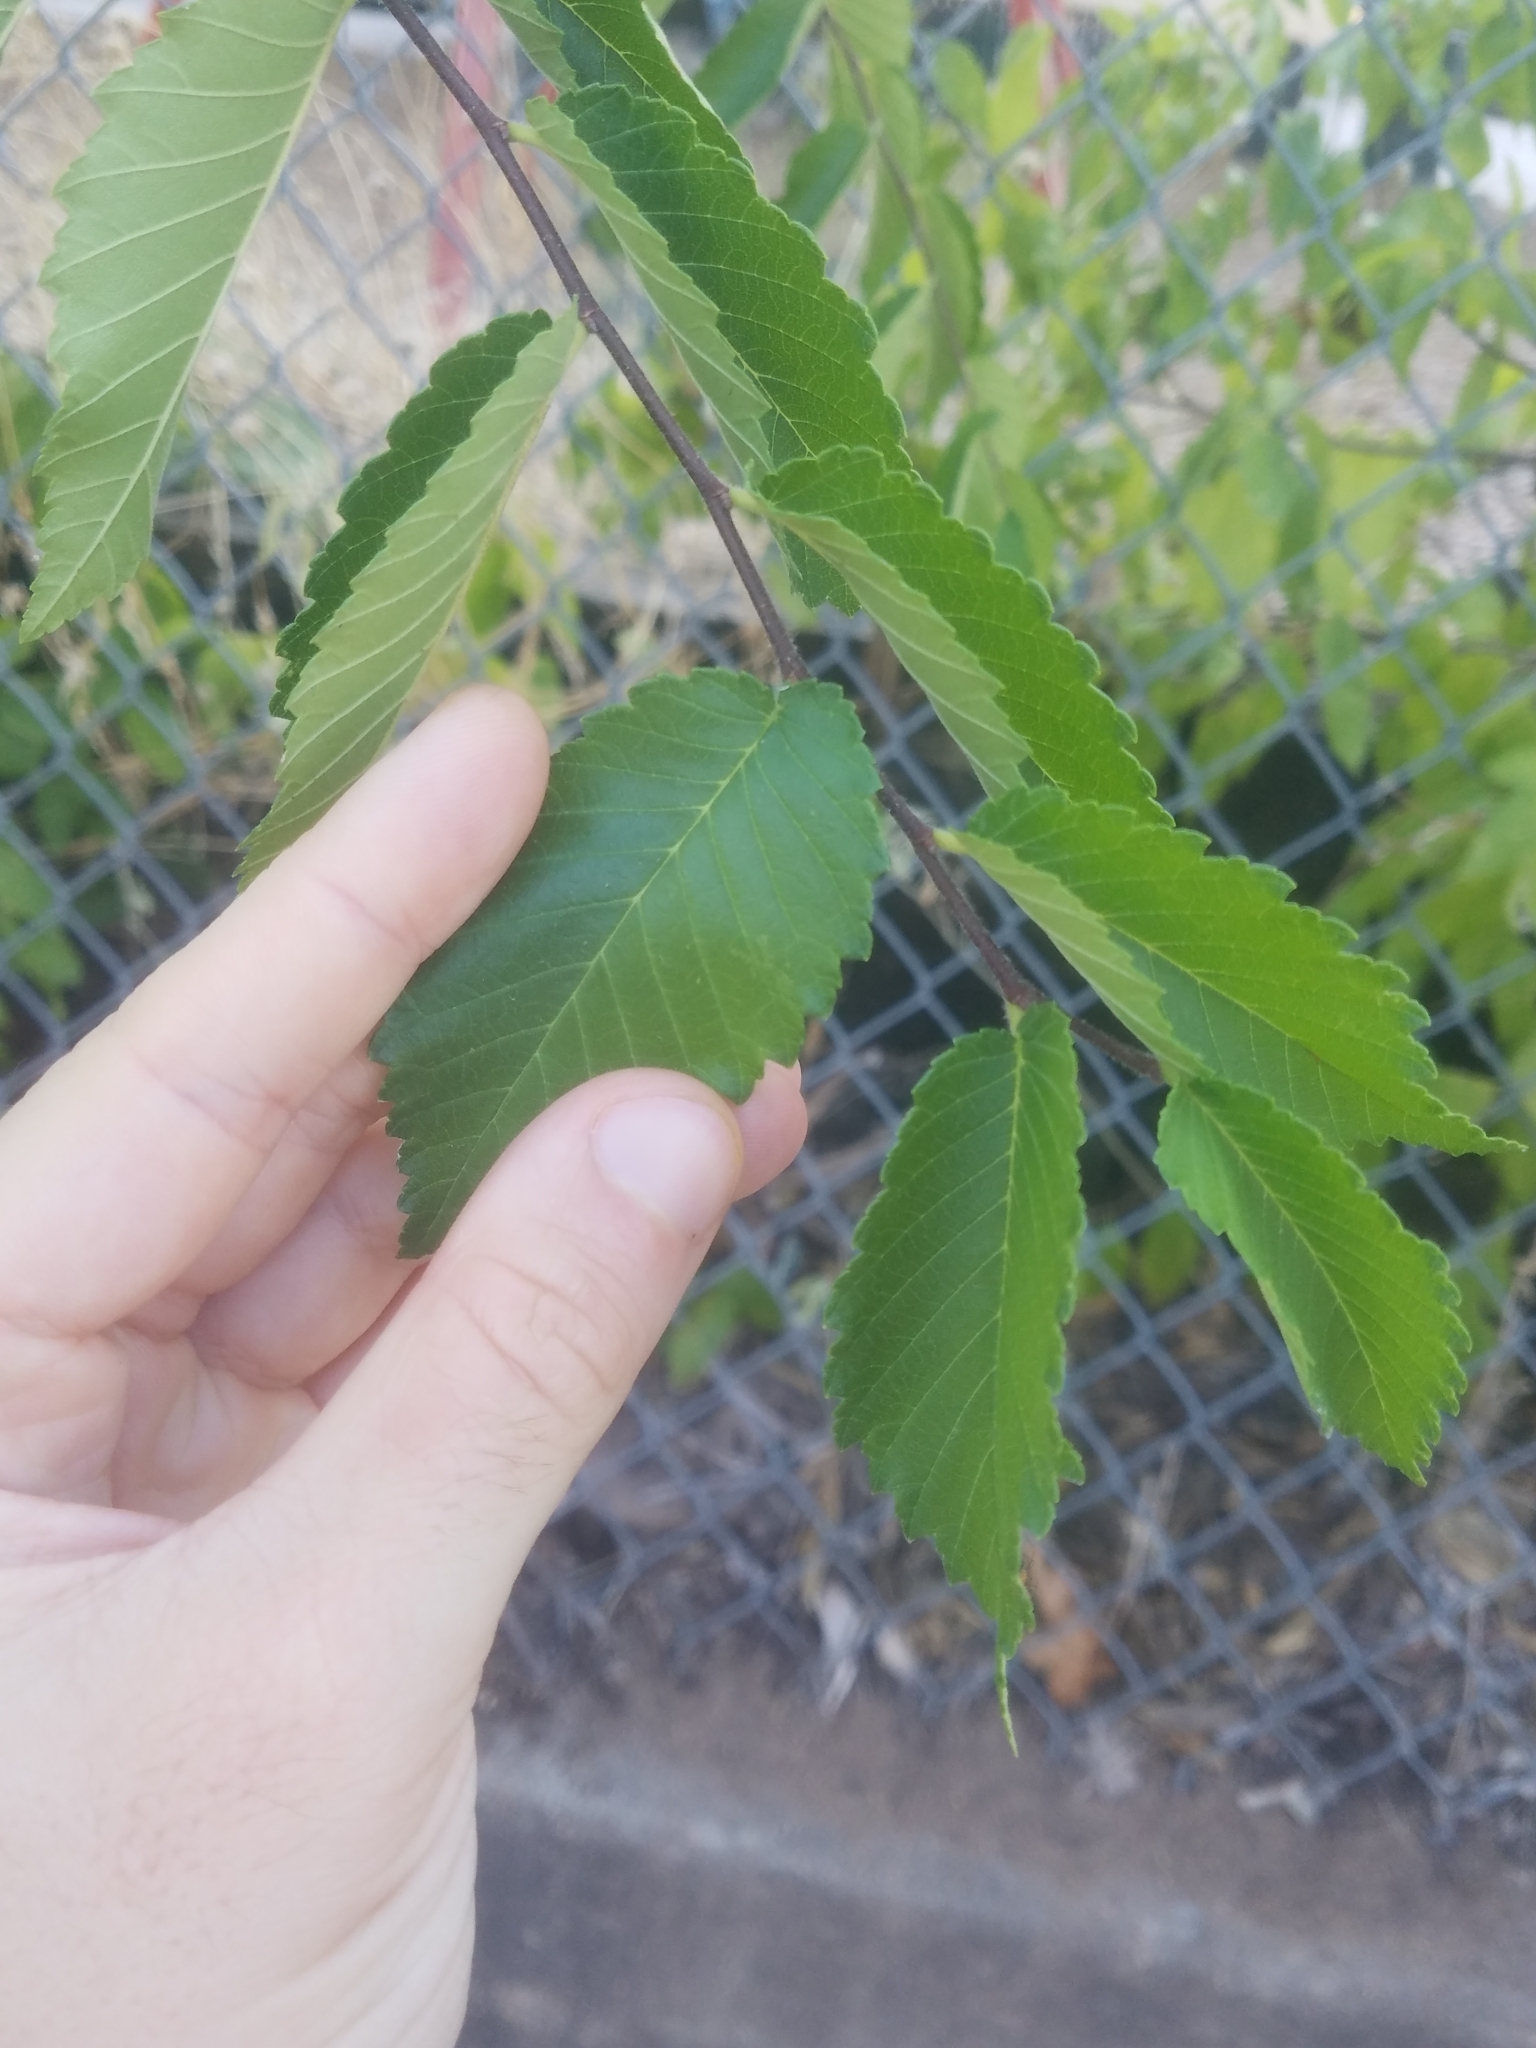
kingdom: Plantae
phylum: Tracheophyta
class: Magnoliopsida
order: Rosales
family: Ulmaceae
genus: Ulmus
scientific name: Ulmus pumila
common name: Siberian elm
